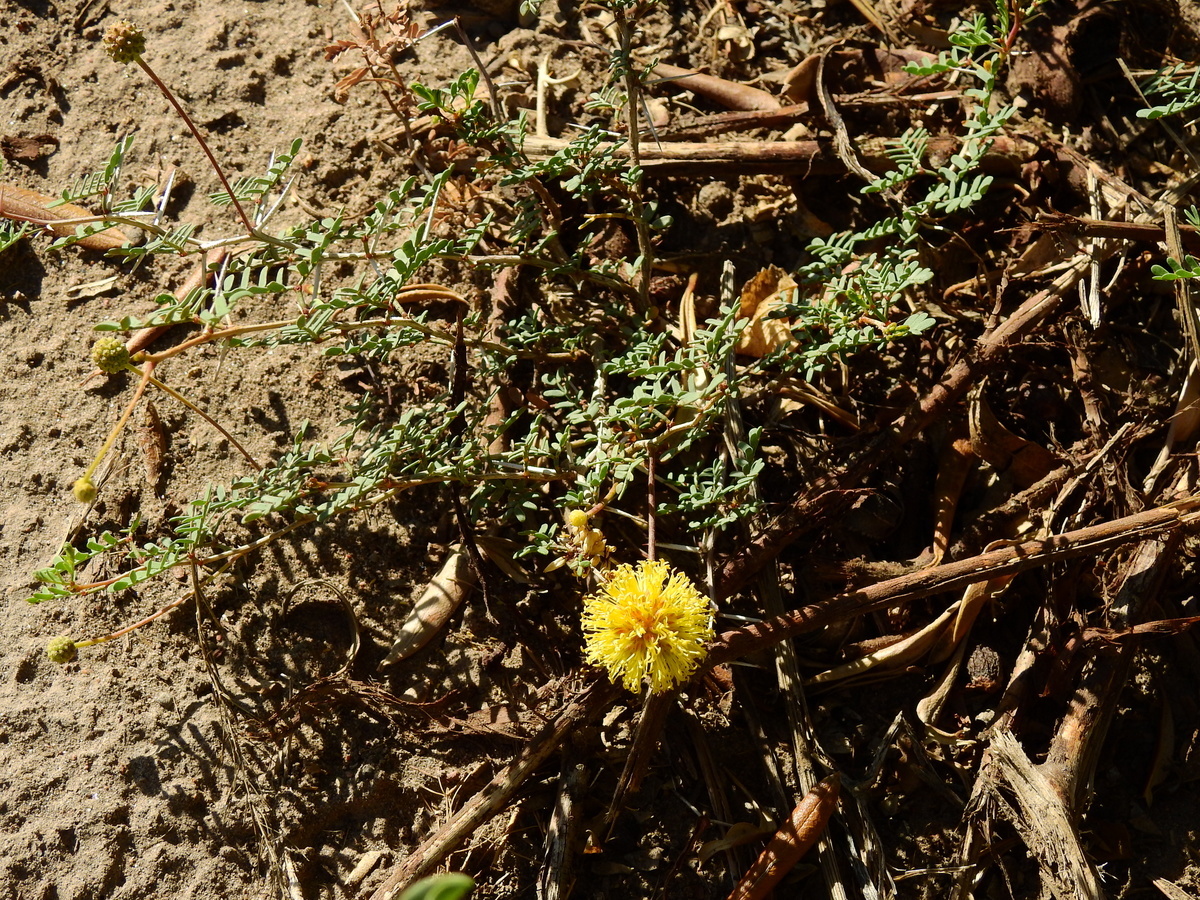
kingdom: Plantae
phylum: Tracheophyta
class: Magnoliopsida
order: Fabales
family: Fabaceae
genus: Prosopis
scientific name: Prosopis strombulifera
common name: Creeping mesquite
